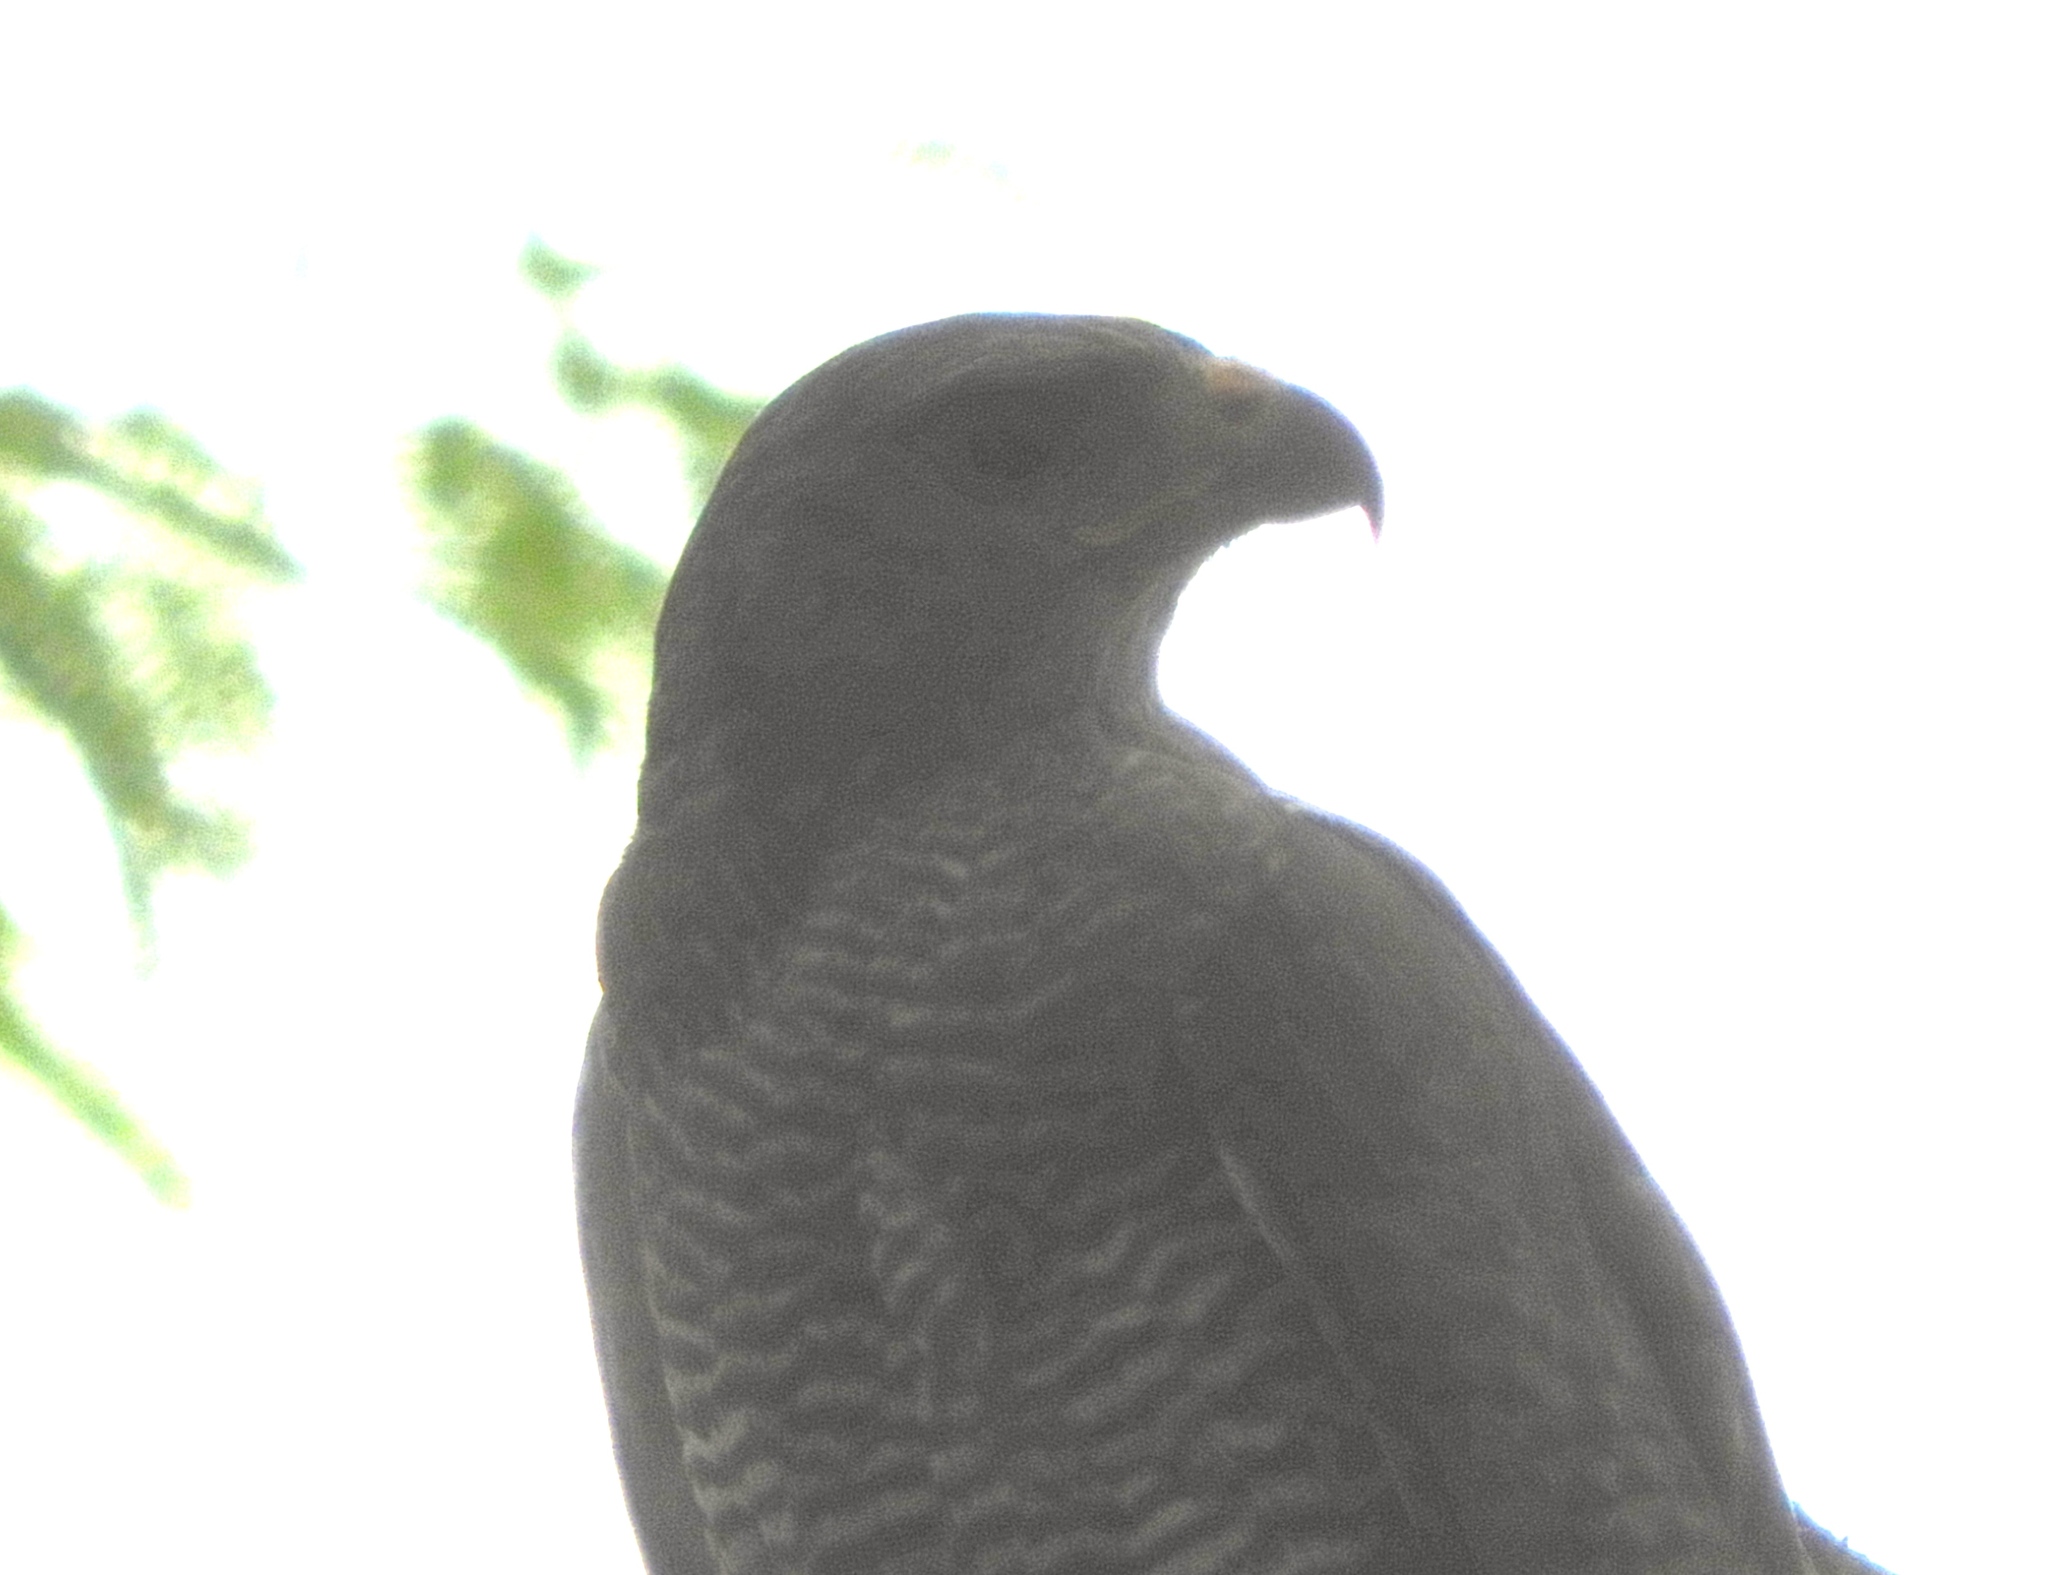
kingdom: Animalia
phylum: Chordata
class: Aves
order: Accipitriformes
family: Accipitridae
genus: Buteo
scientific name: Buteo nitidus
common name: Grey-lined hawk
